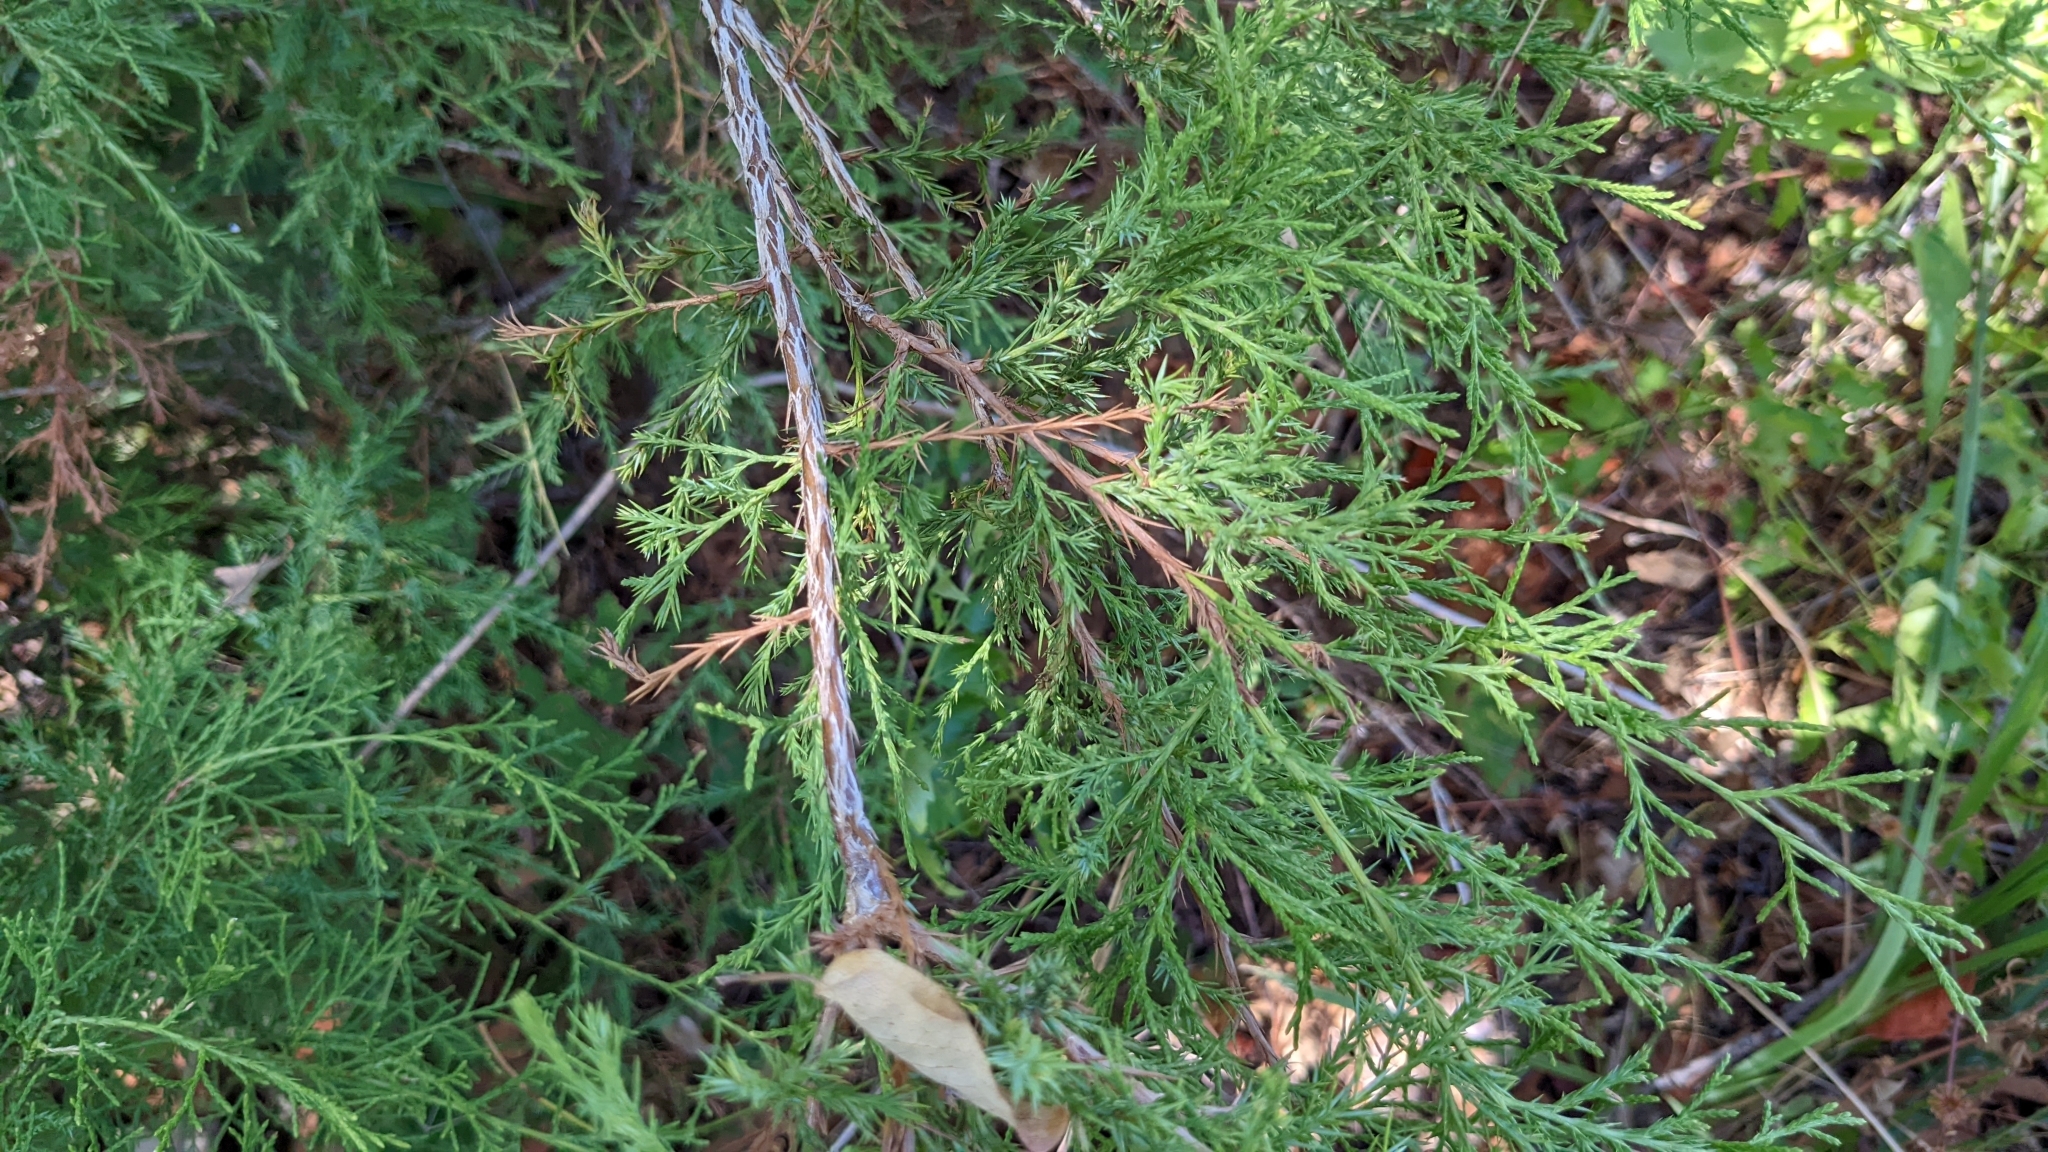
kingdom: Plantae
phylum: Tracheophyta
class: Pinopsida
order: Pinales
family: Cupressaceae
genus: Juniperus
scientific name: Juniperus virginiana
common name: Red juniper
